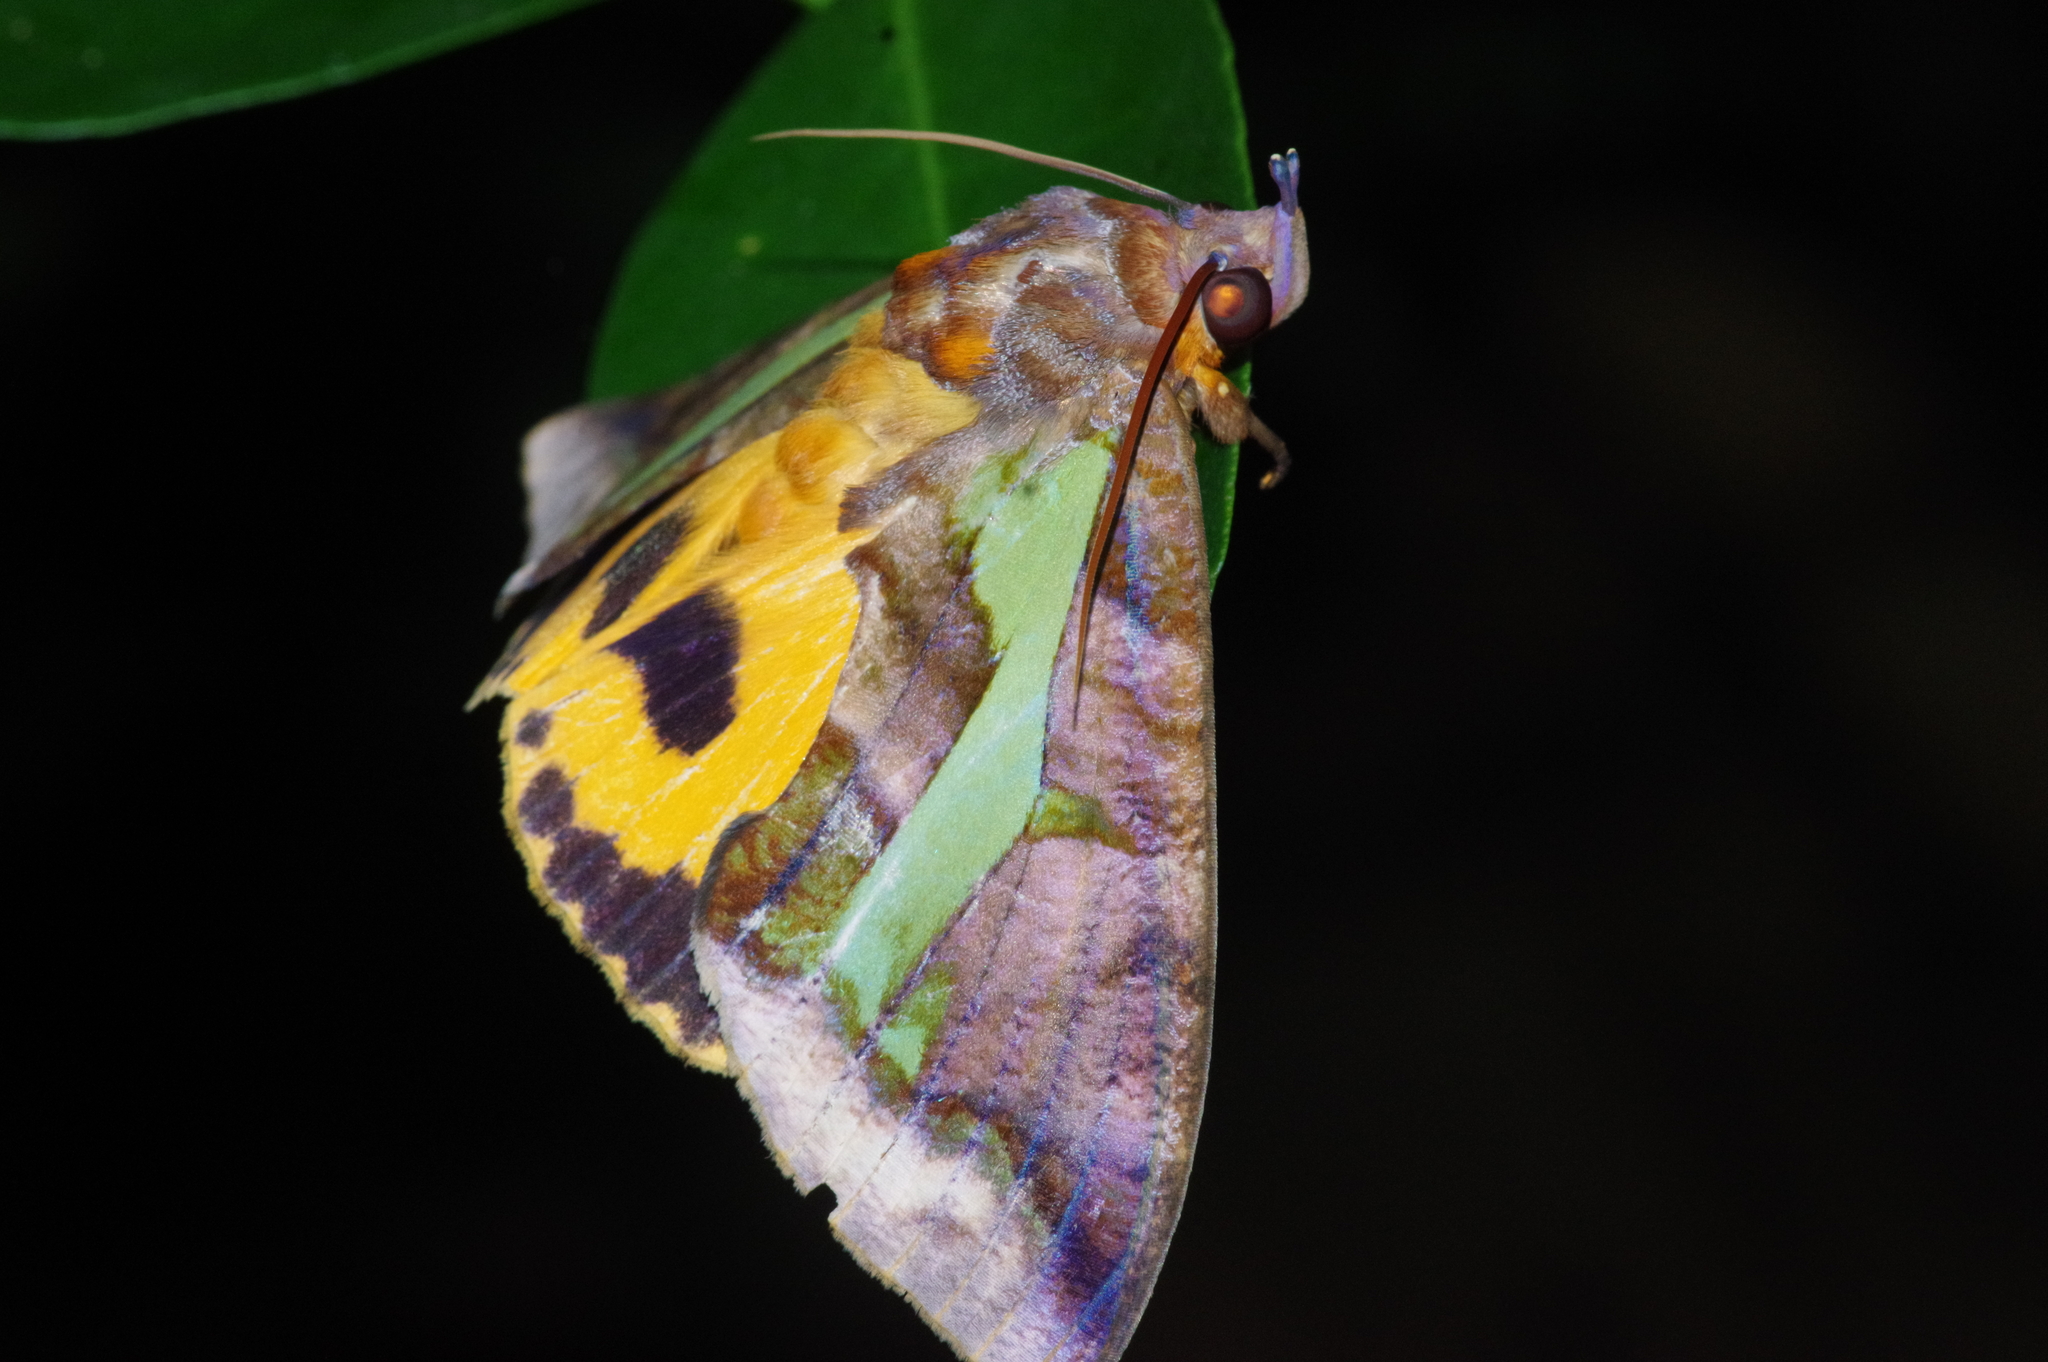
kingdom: Animalia
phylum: Arthropoda
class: Insecta
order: Lepidoptera
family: Erebidae
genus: Eudocima
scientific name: Eudocima homaena
